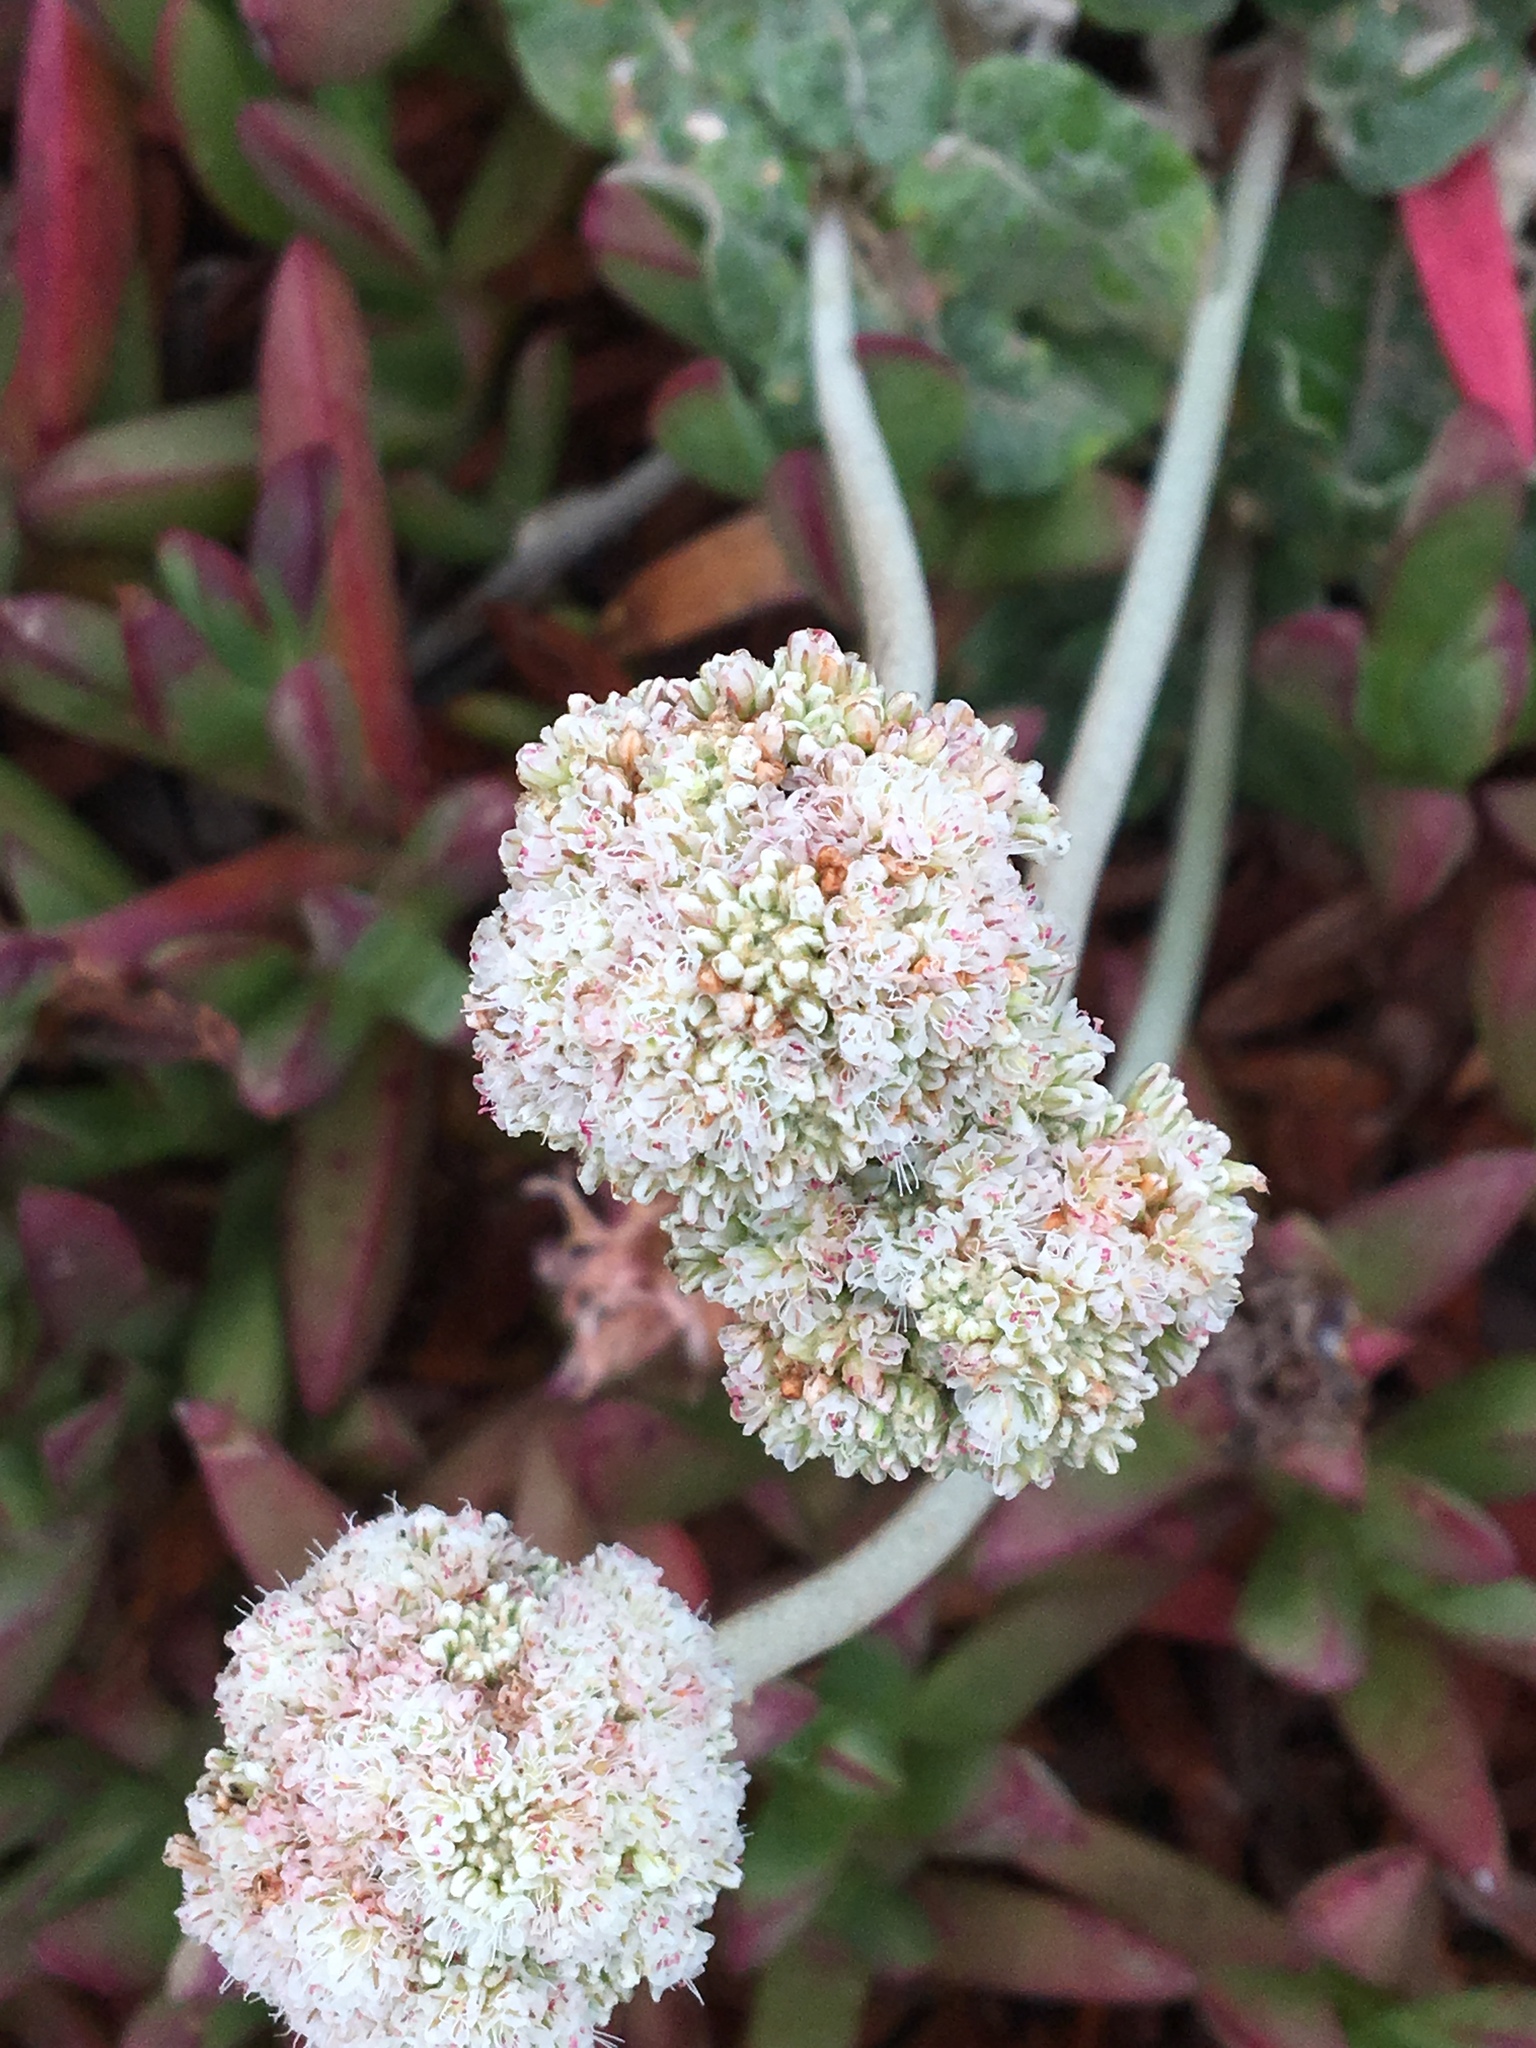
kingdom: Plantae
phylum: Tracheophyta
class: Magnoliopsida
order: Caryophyllales
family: Polygonaceae
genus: Eriogonum
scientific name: Eriogonum latifolium
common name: Seaside wild buckwheat
